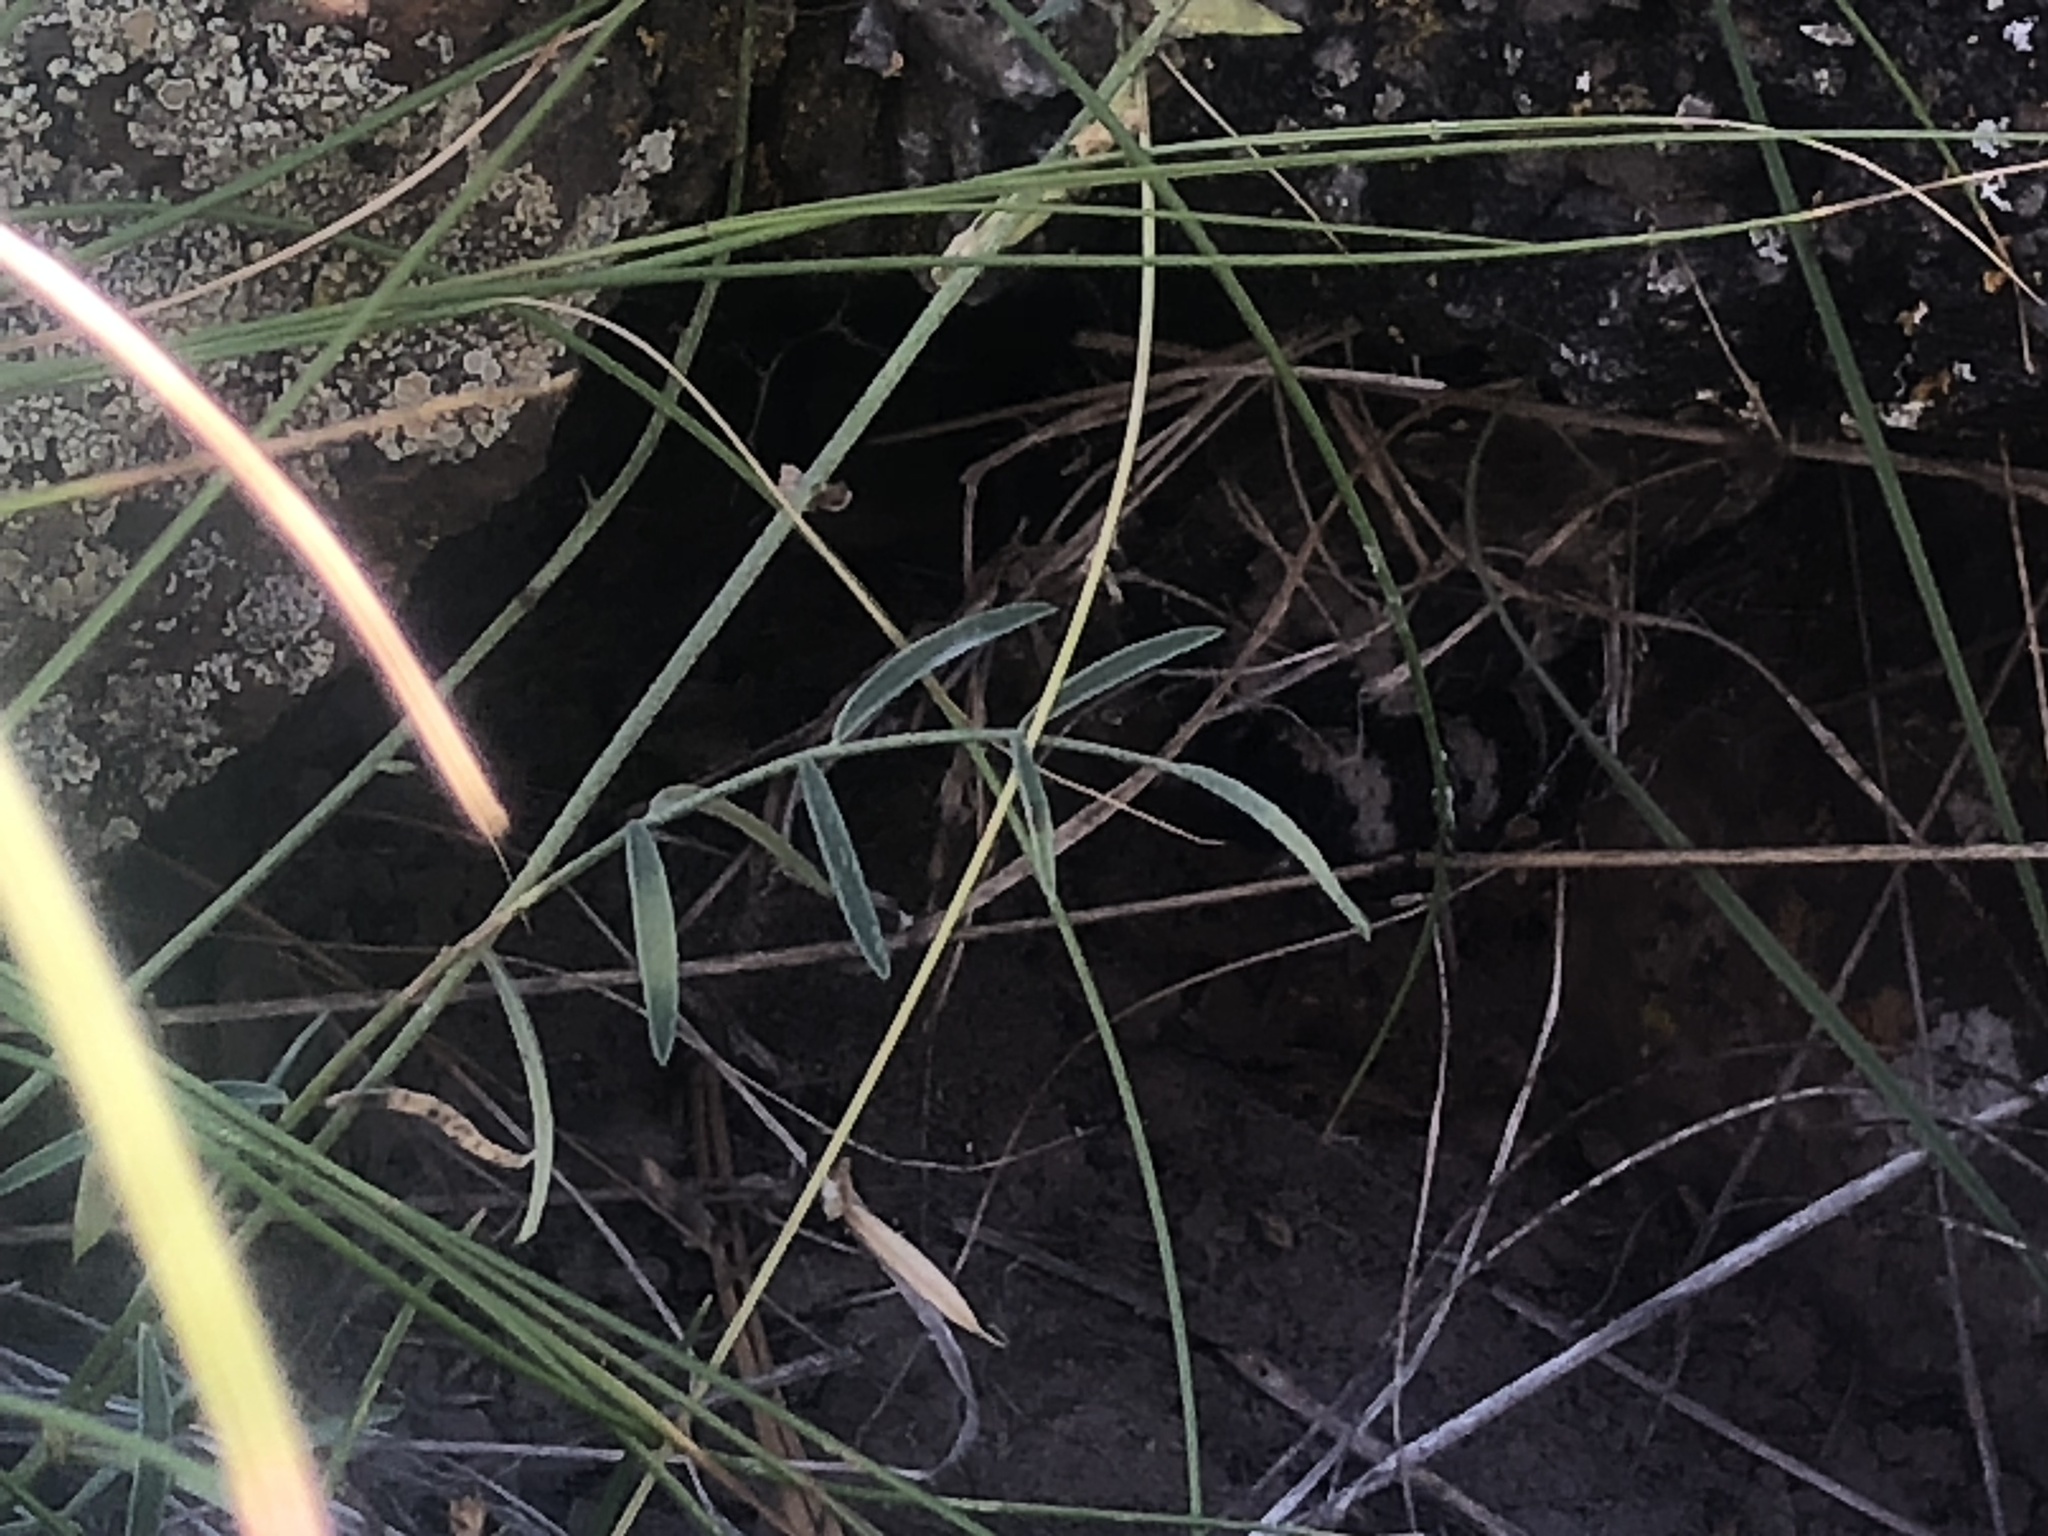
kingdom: Animalia
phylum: Chordata
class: Squamata
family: Viperidae
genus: Crotalus
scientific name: Crotalus oreganus
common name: Abyssus
